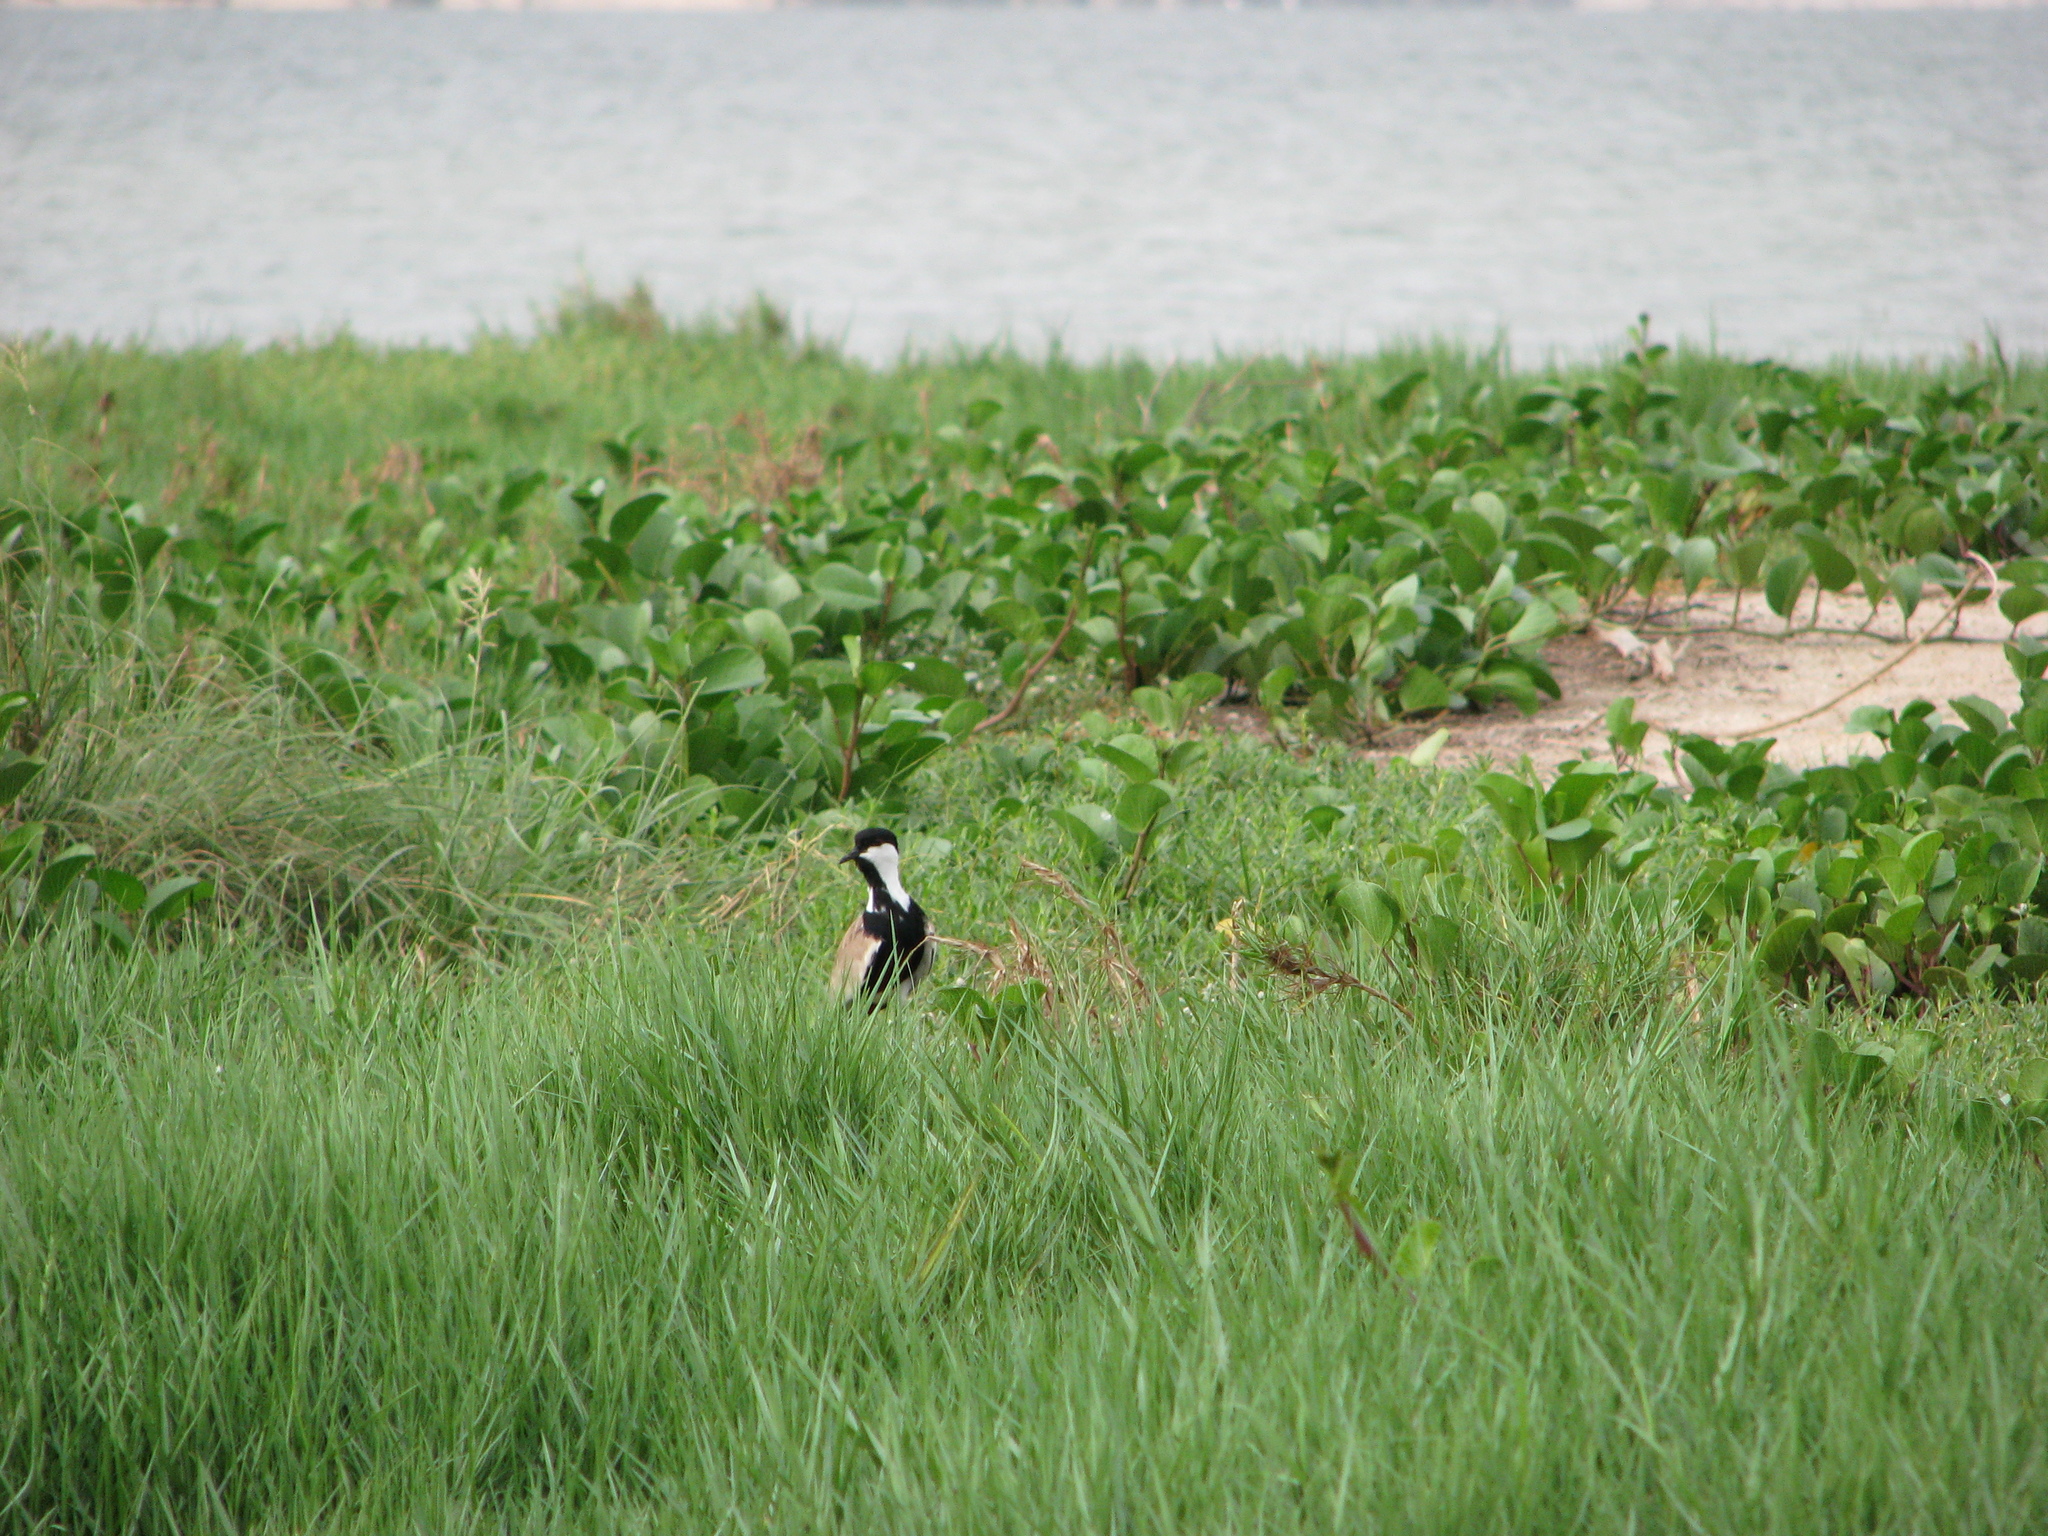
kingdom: Animalia
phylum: Chordata
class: Aves
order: Charadriiformes
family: Charadriidae
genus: Vanellus
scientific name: Vanellus spinosus
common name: Spur-winged lapwing
